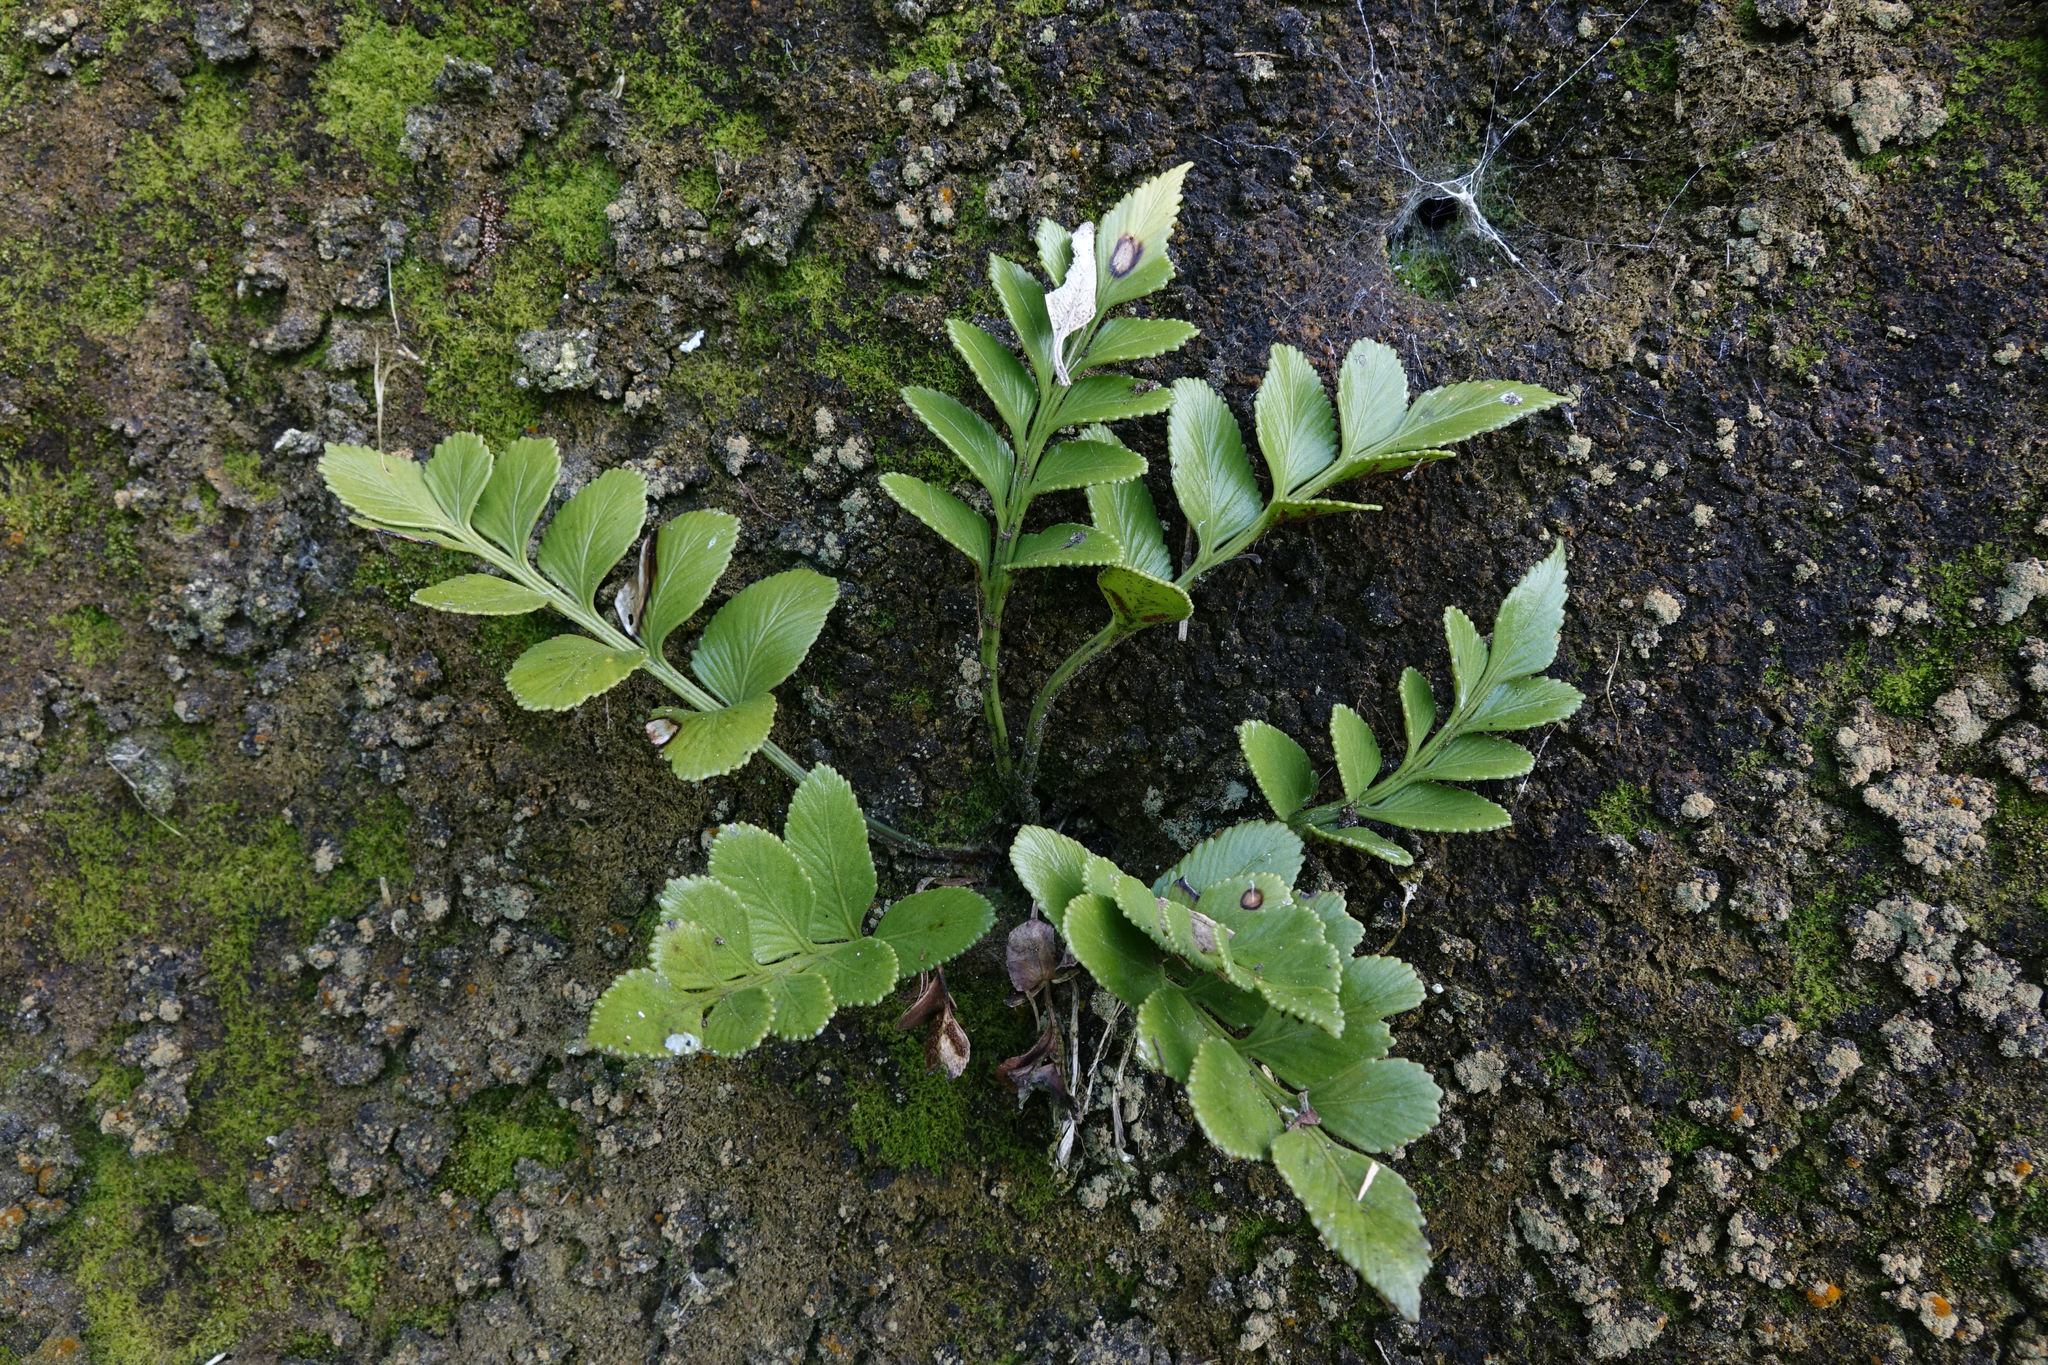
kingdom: Plantae
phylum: Tracheophyta
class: Polypodiopsida
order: Polypodiales
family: Aspleniaceae
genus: Asplenium
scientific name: Asplenium obtusatum
